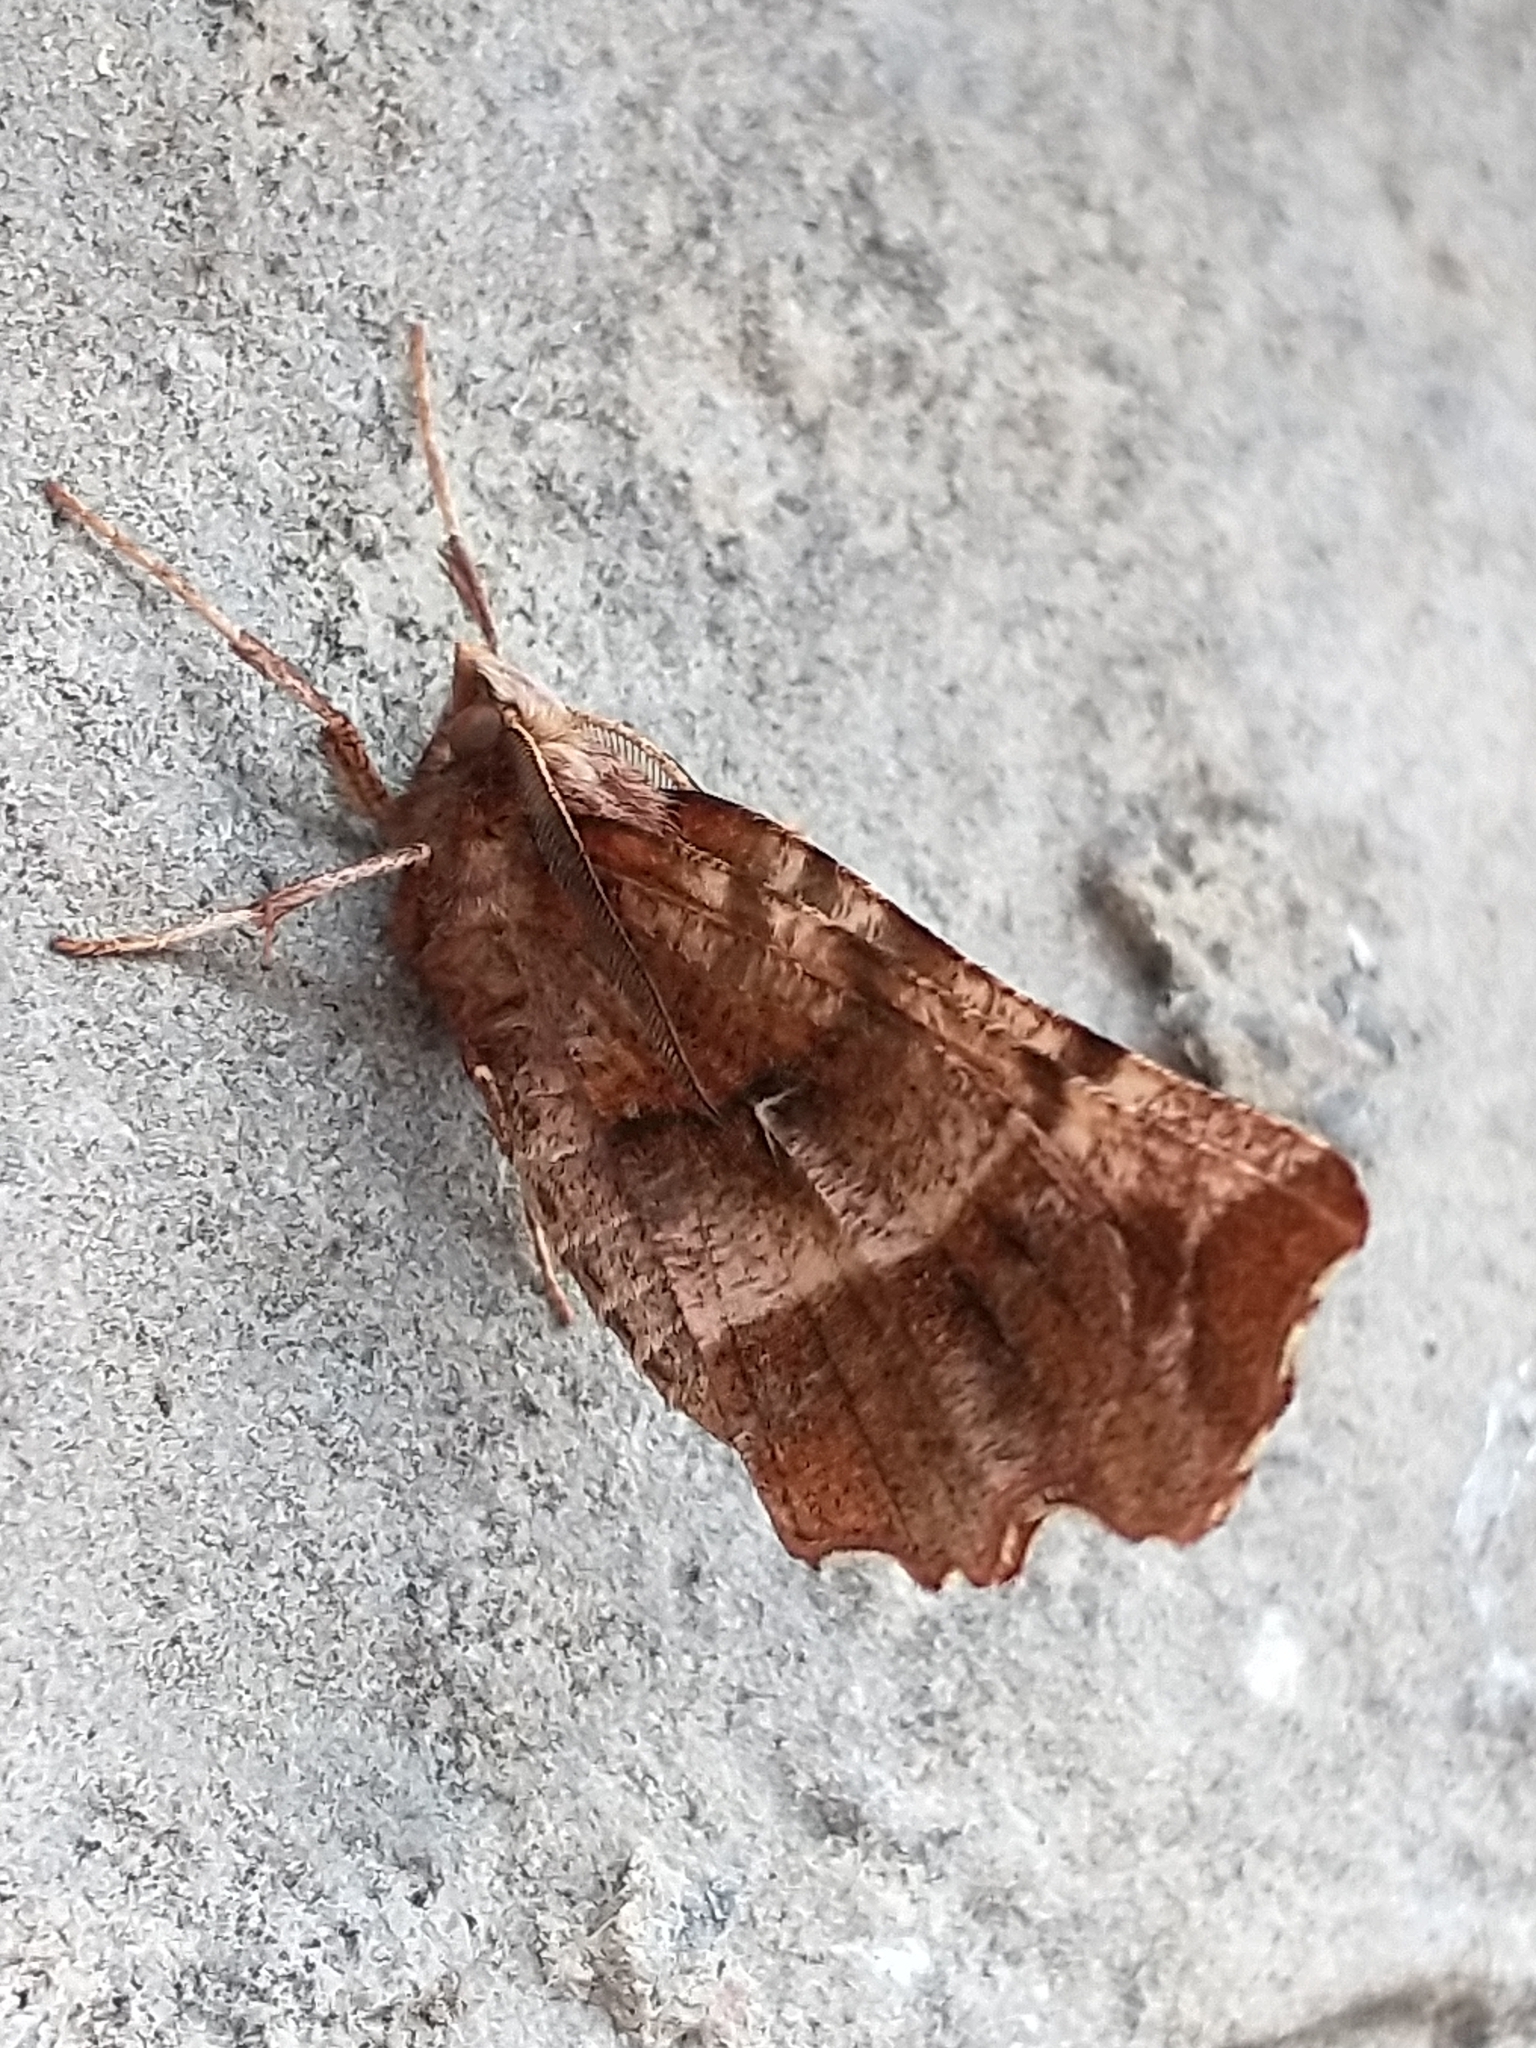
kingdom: Animalia
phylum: Arthropoda
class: Insecta
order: Lepidoptera
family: Geometridae
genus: Selenia
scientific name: Selenia dentaria
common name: Early thorn
